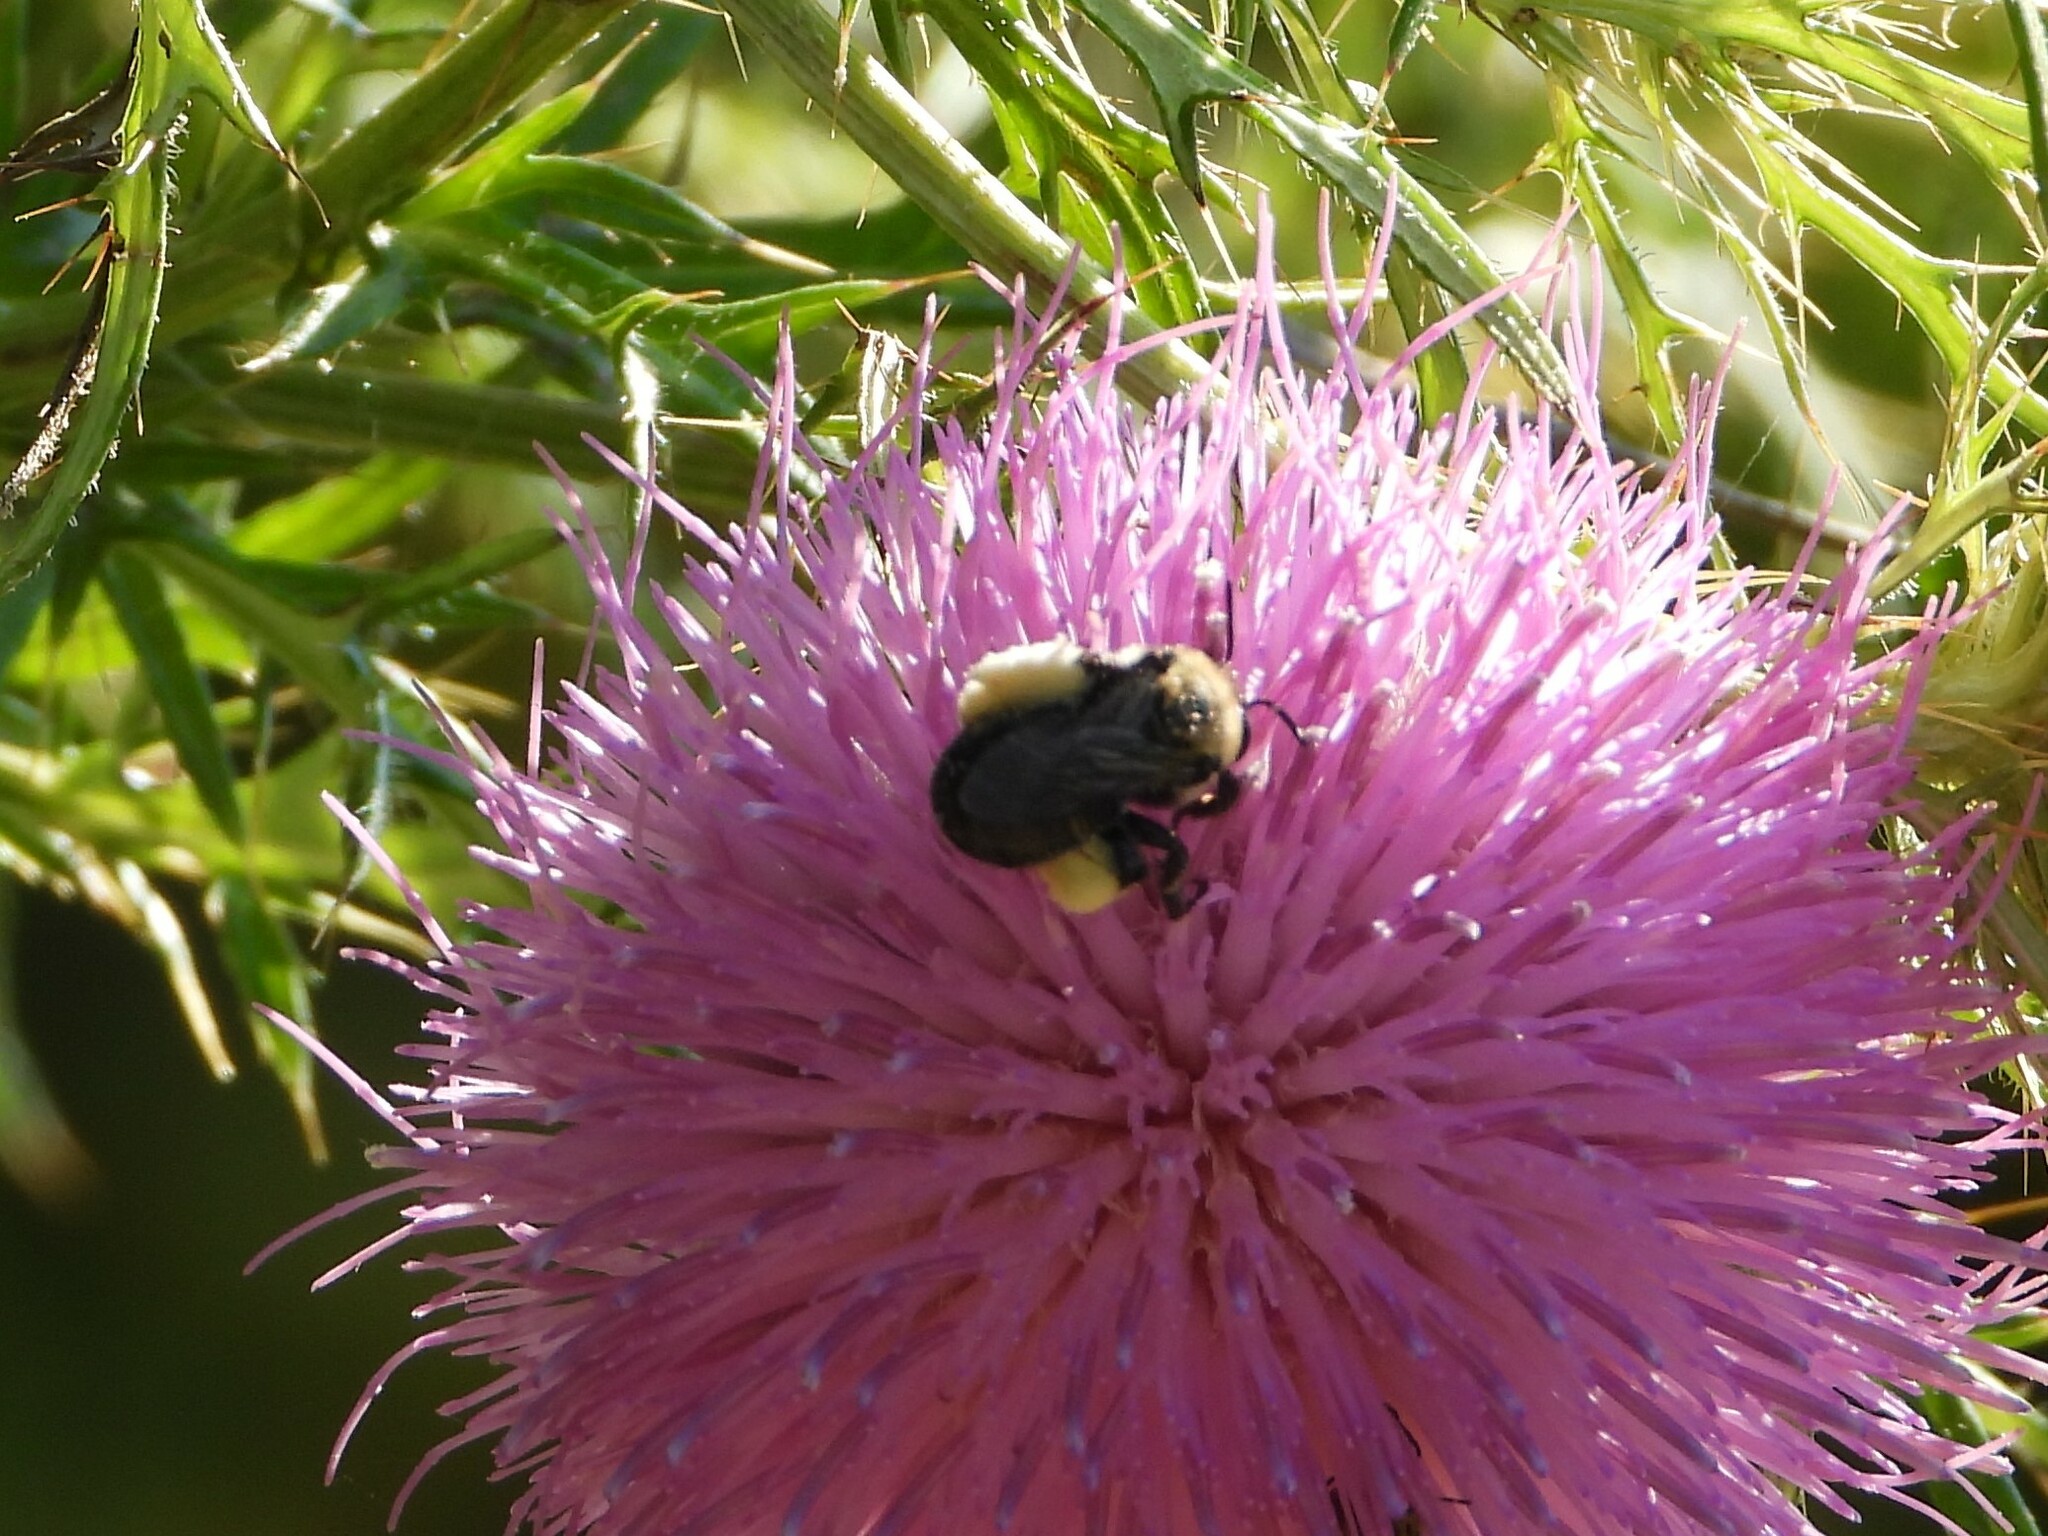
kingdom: Animalia
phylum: Arthropoda
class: Insecta
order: Hymenoptera
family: Apidae
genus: Melissodes
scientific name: Melissodes desponsus
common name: Thistle long-horned bee
